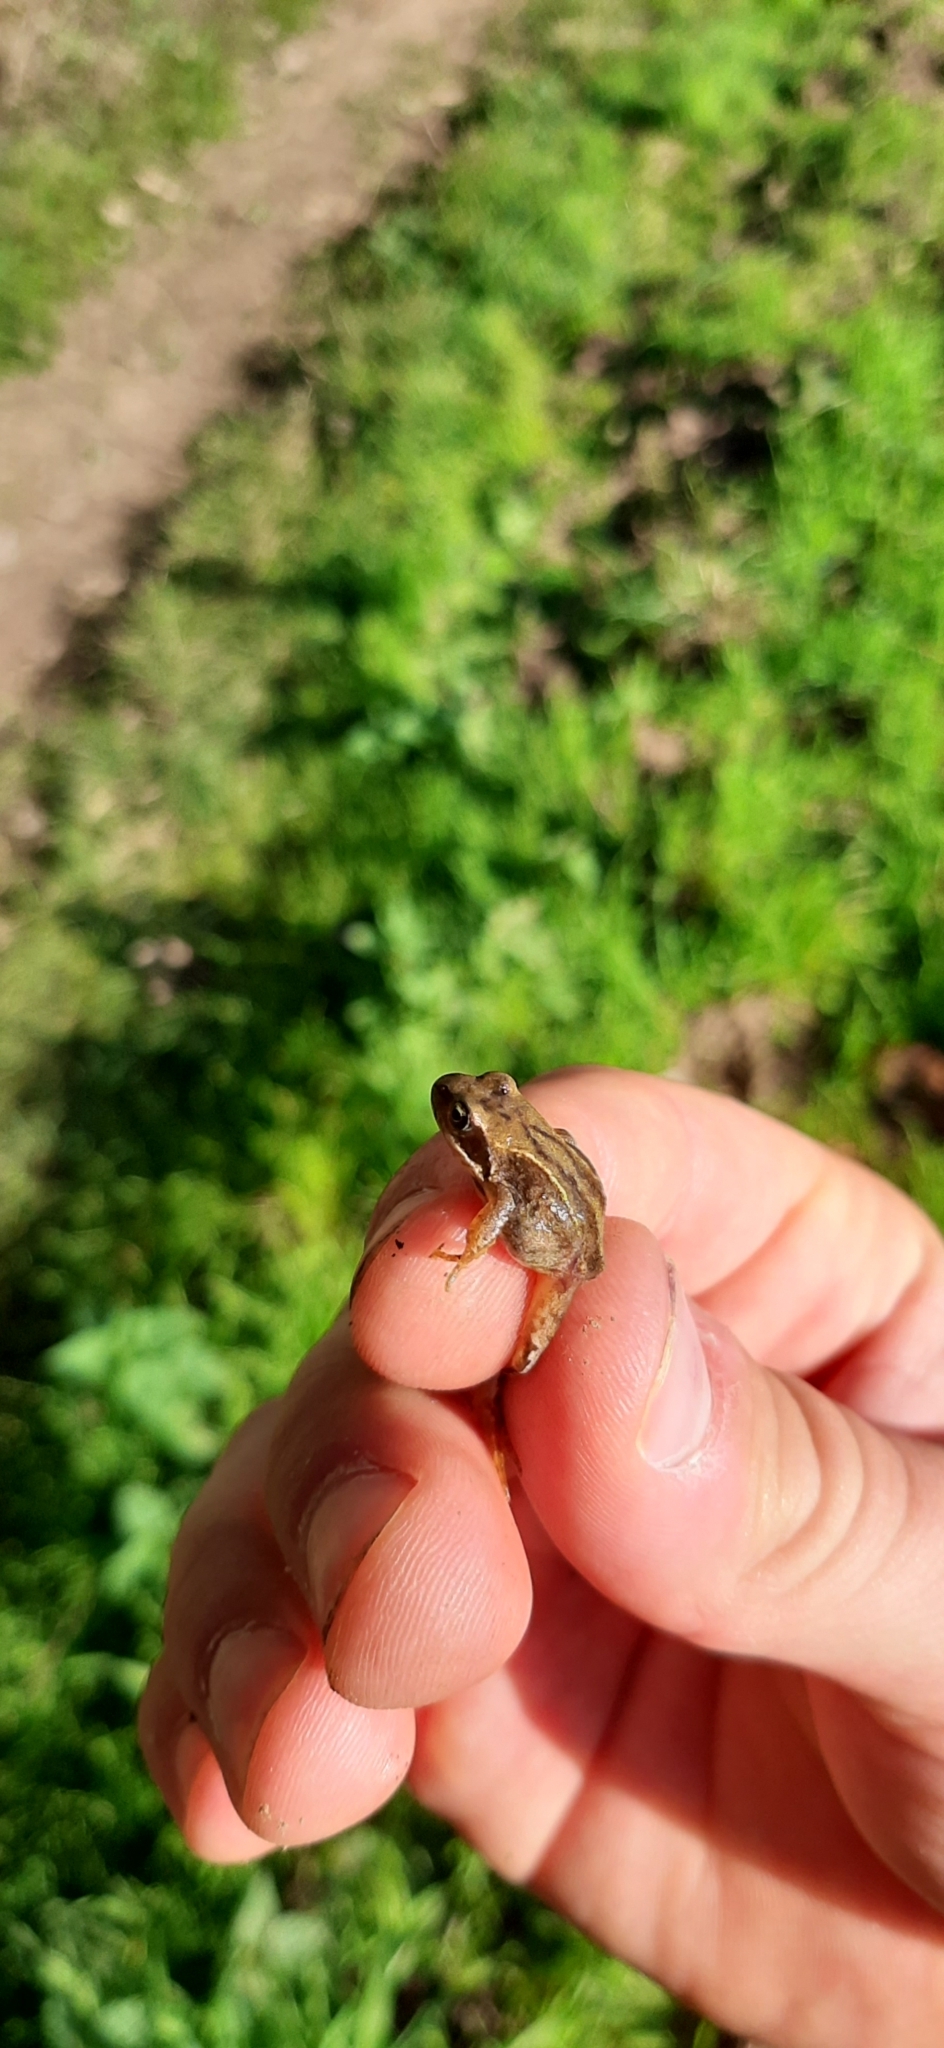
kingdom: Animalia
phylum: Chordata
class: Amphibia
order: Anura
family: Ranidae
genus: Rana
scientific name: Rana temporaria
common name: Common frog
